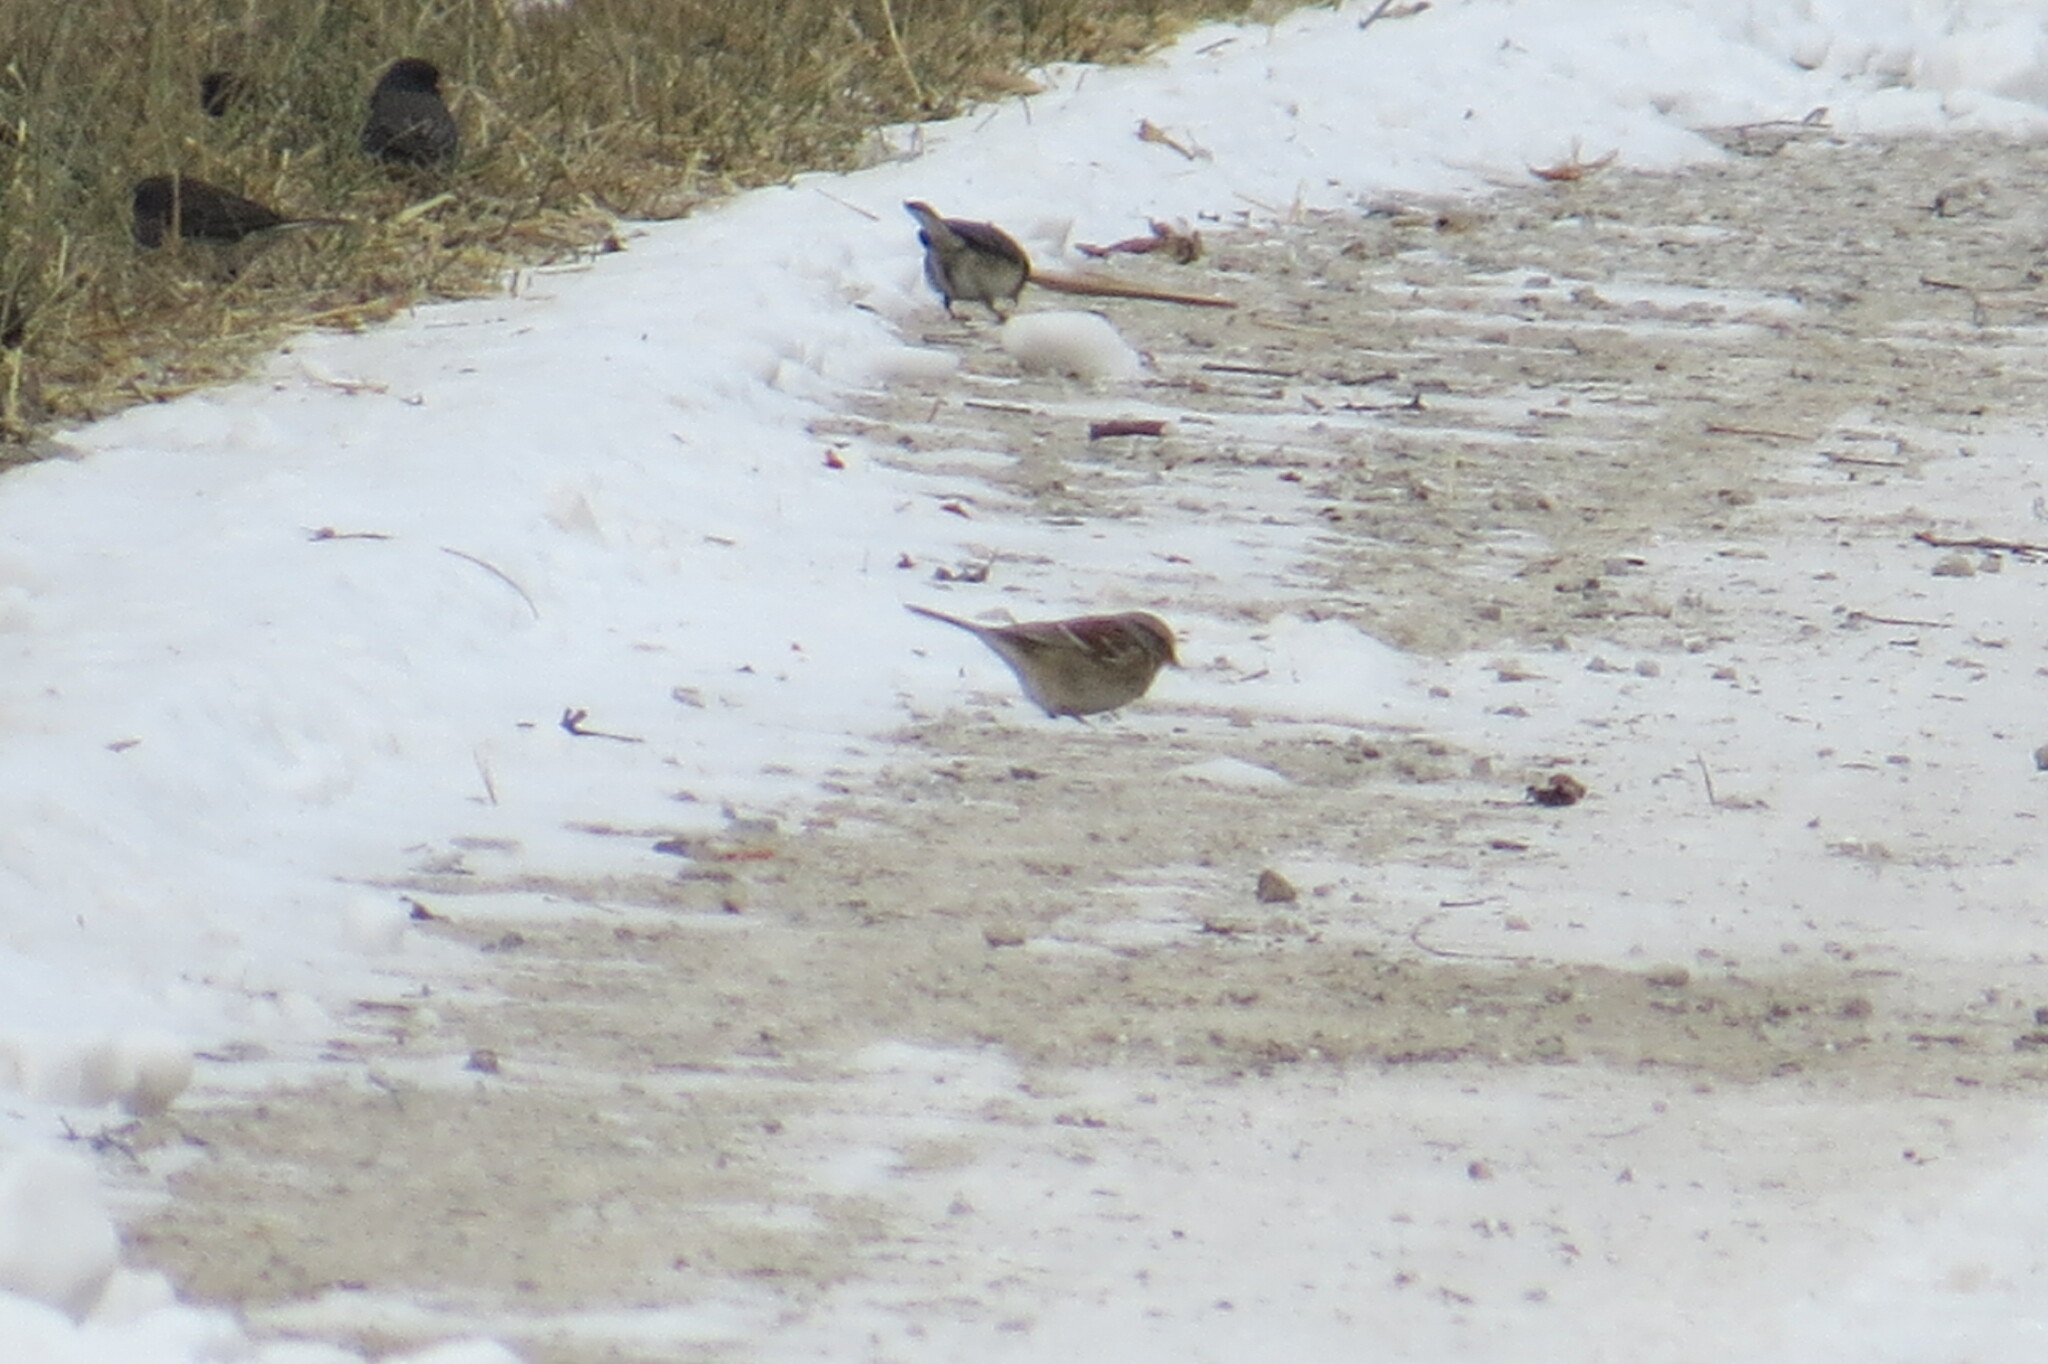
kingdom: Animalia
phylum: Chordata
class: Aves
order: Passeriformes
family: Passerellidae
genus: Spizelloides
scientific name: Spizelloides arborea
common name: American tree sparrow
